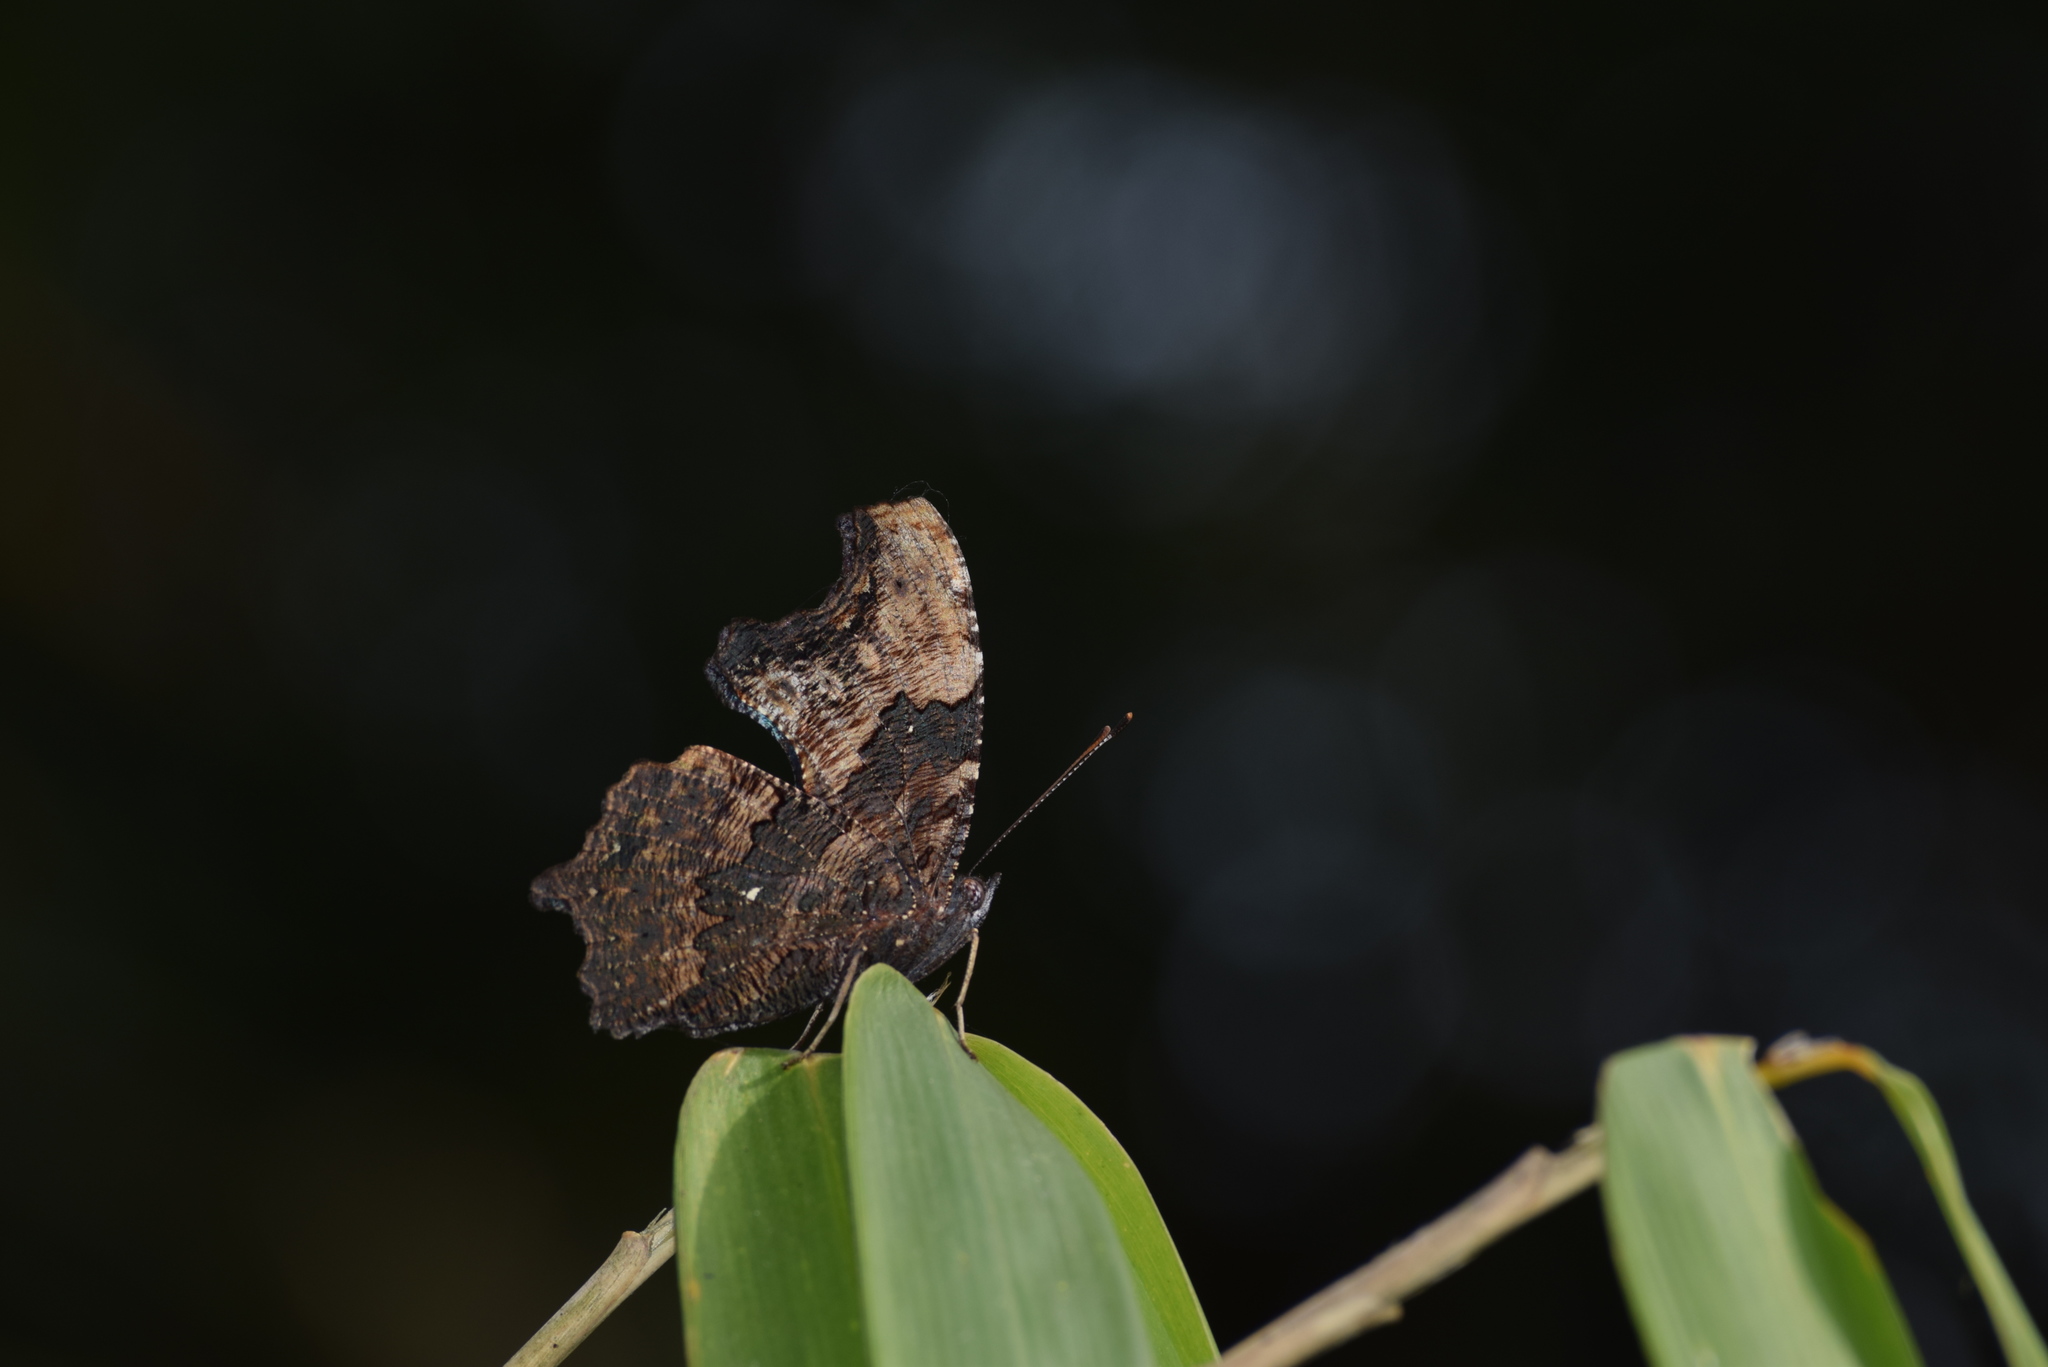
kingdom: Animalia
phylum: Arthropoda
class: Insecta
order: Lepidoptera
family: Nymphalidae
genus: Vanessa
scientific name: Vanessa Kaniska canace
